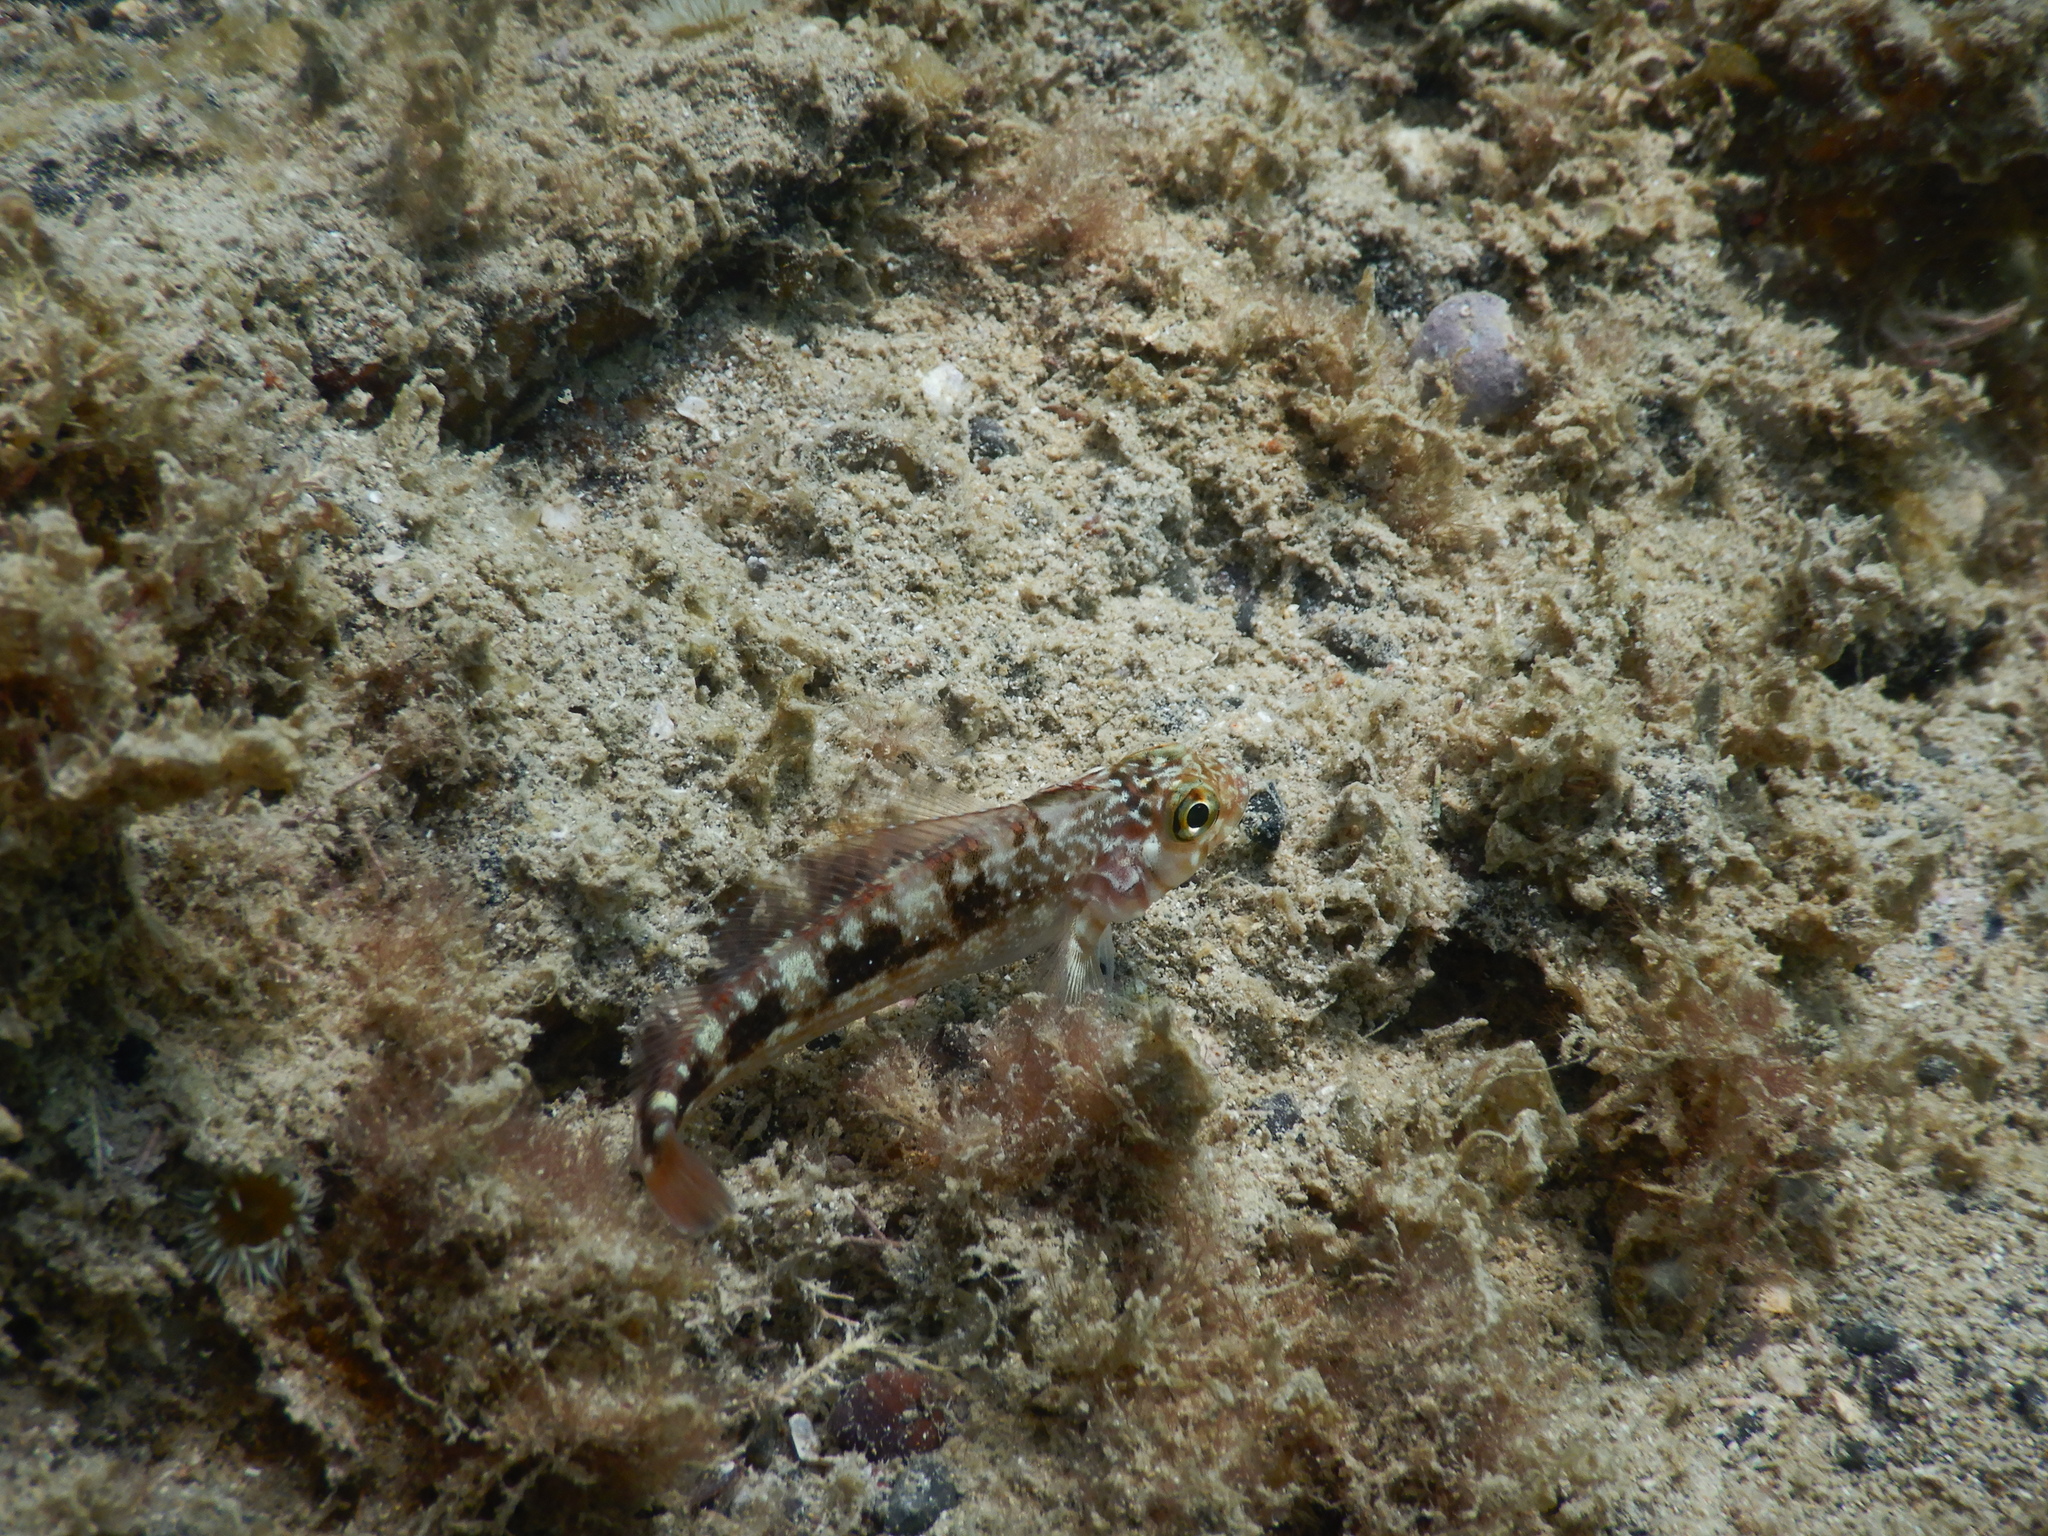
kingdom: Animalia
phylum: Chordata
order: Perciformes
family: Tripterygiidae
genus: Forsterygion
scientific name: Forsterygion varium
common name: Variable triplefin
